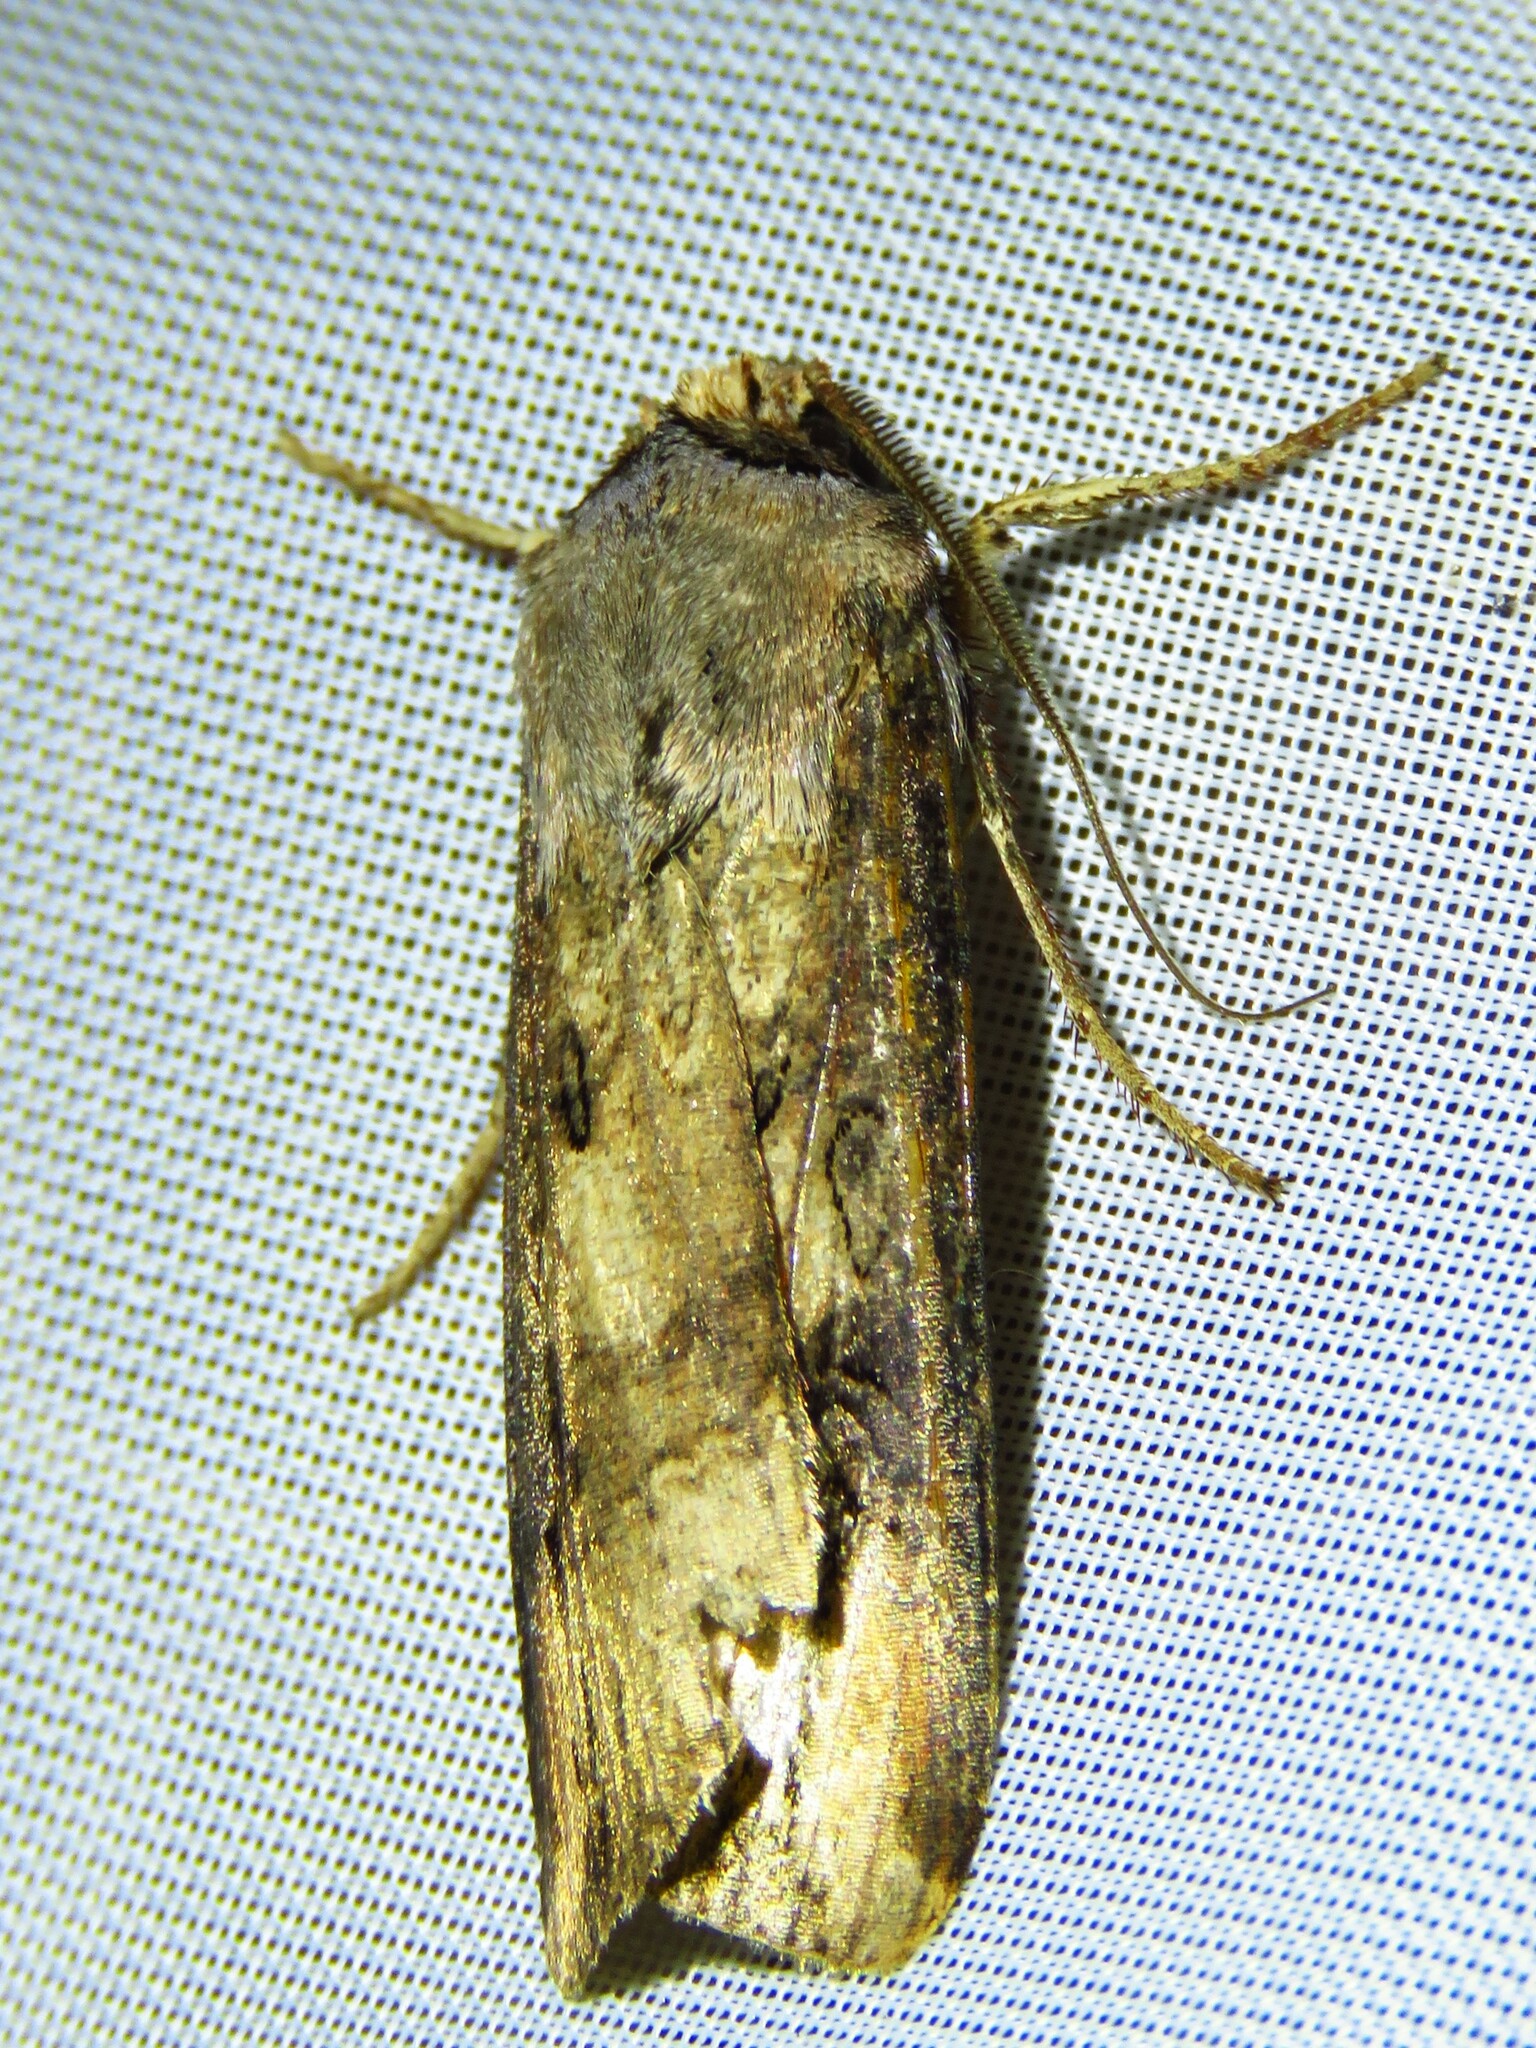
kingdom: Animalia
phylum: Arthropoda
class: Insecta
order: Lepidoptera
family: Noctuidae
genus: Agrotis
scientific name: Agrotis ipsilon
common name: Dark sword-grass
